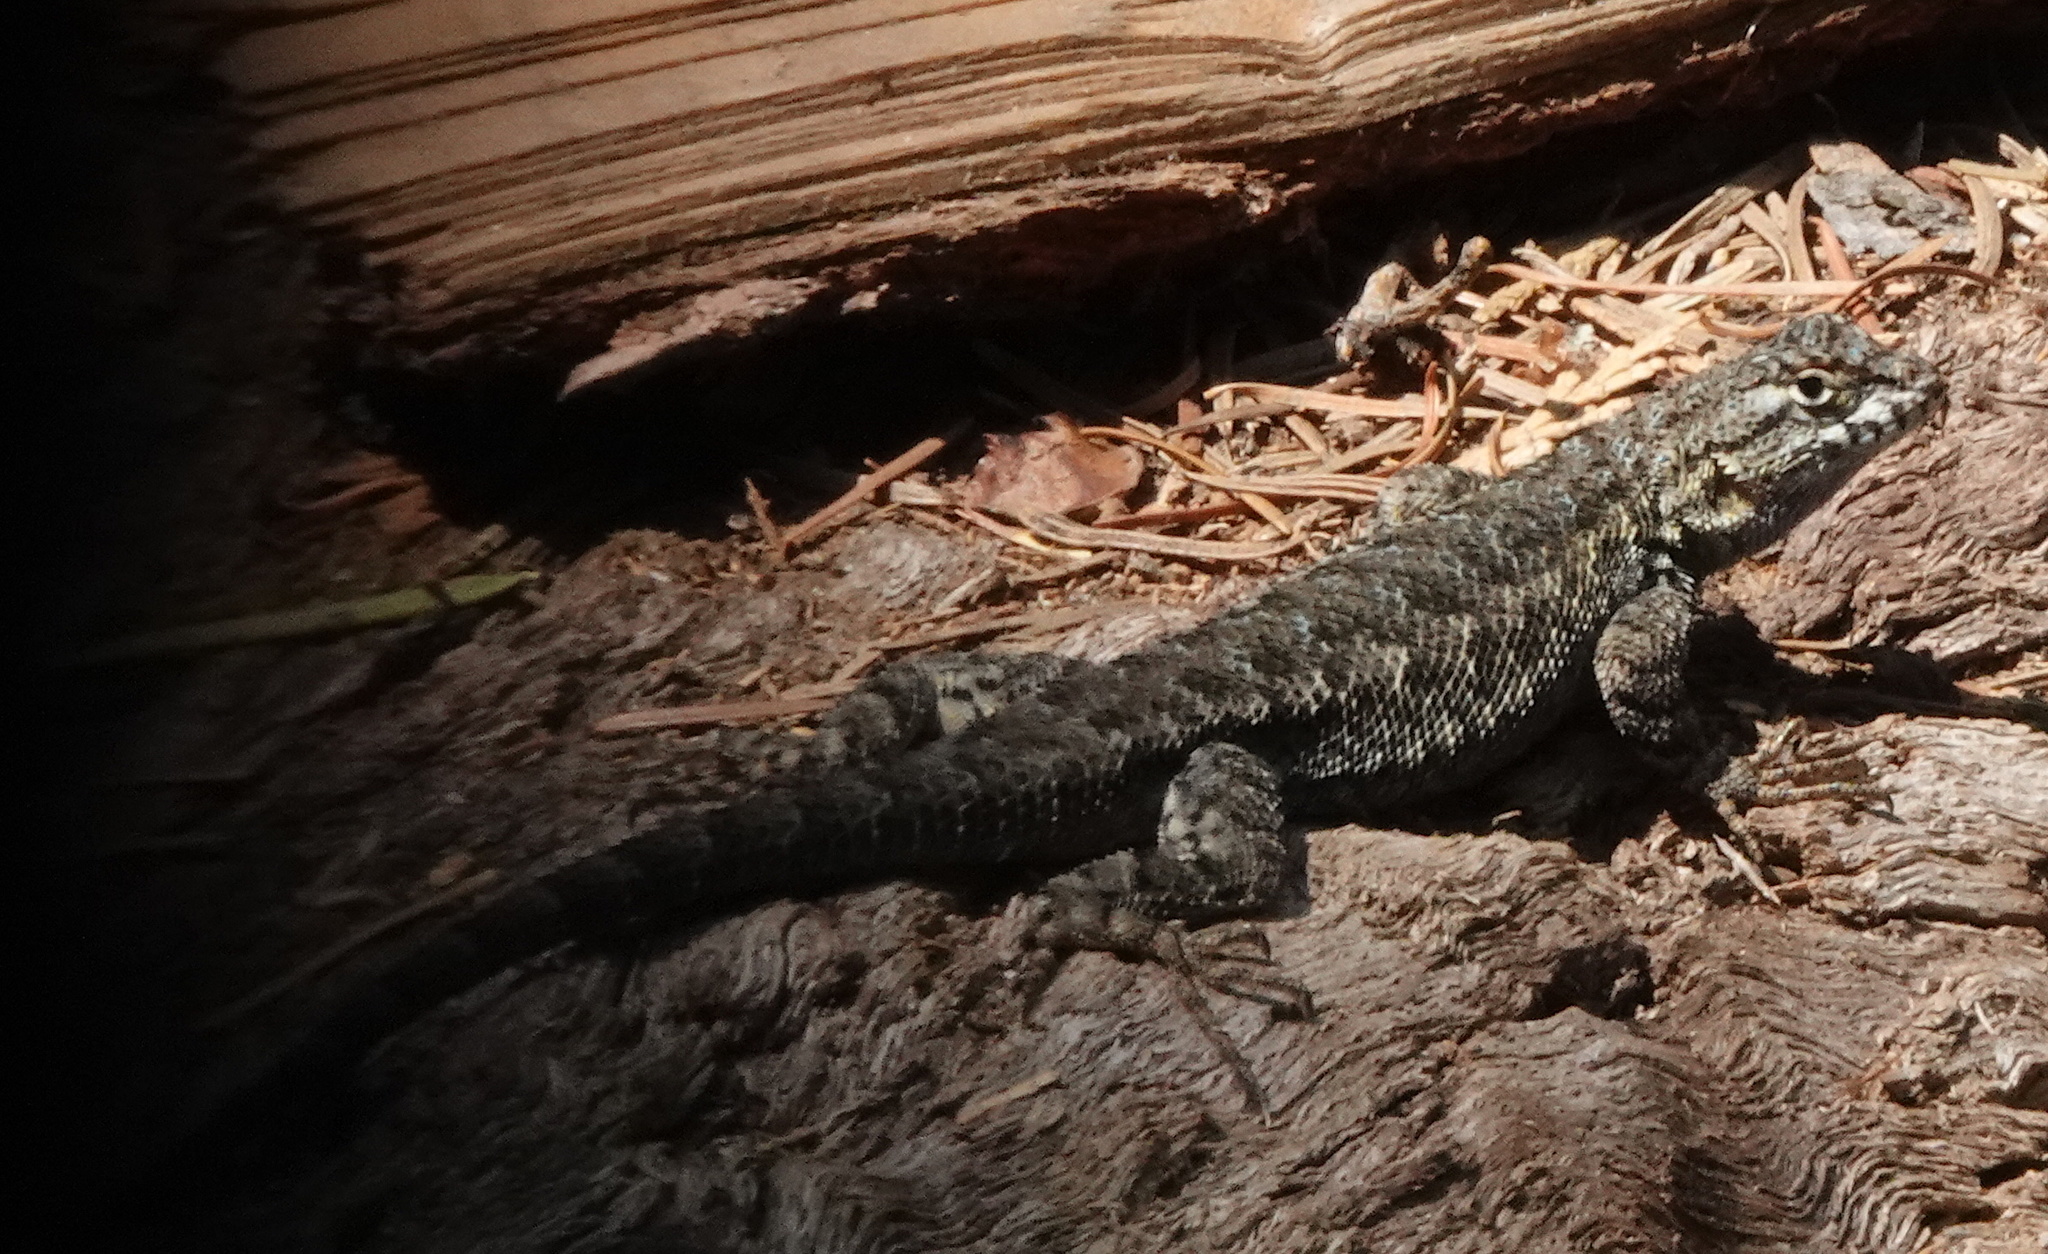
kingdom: Animalia
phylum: Chordata
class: Squamata
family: Phrynosomatidae
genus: Sceloporus
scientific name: Sceloporus occidentalis
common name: Western fence lizard
